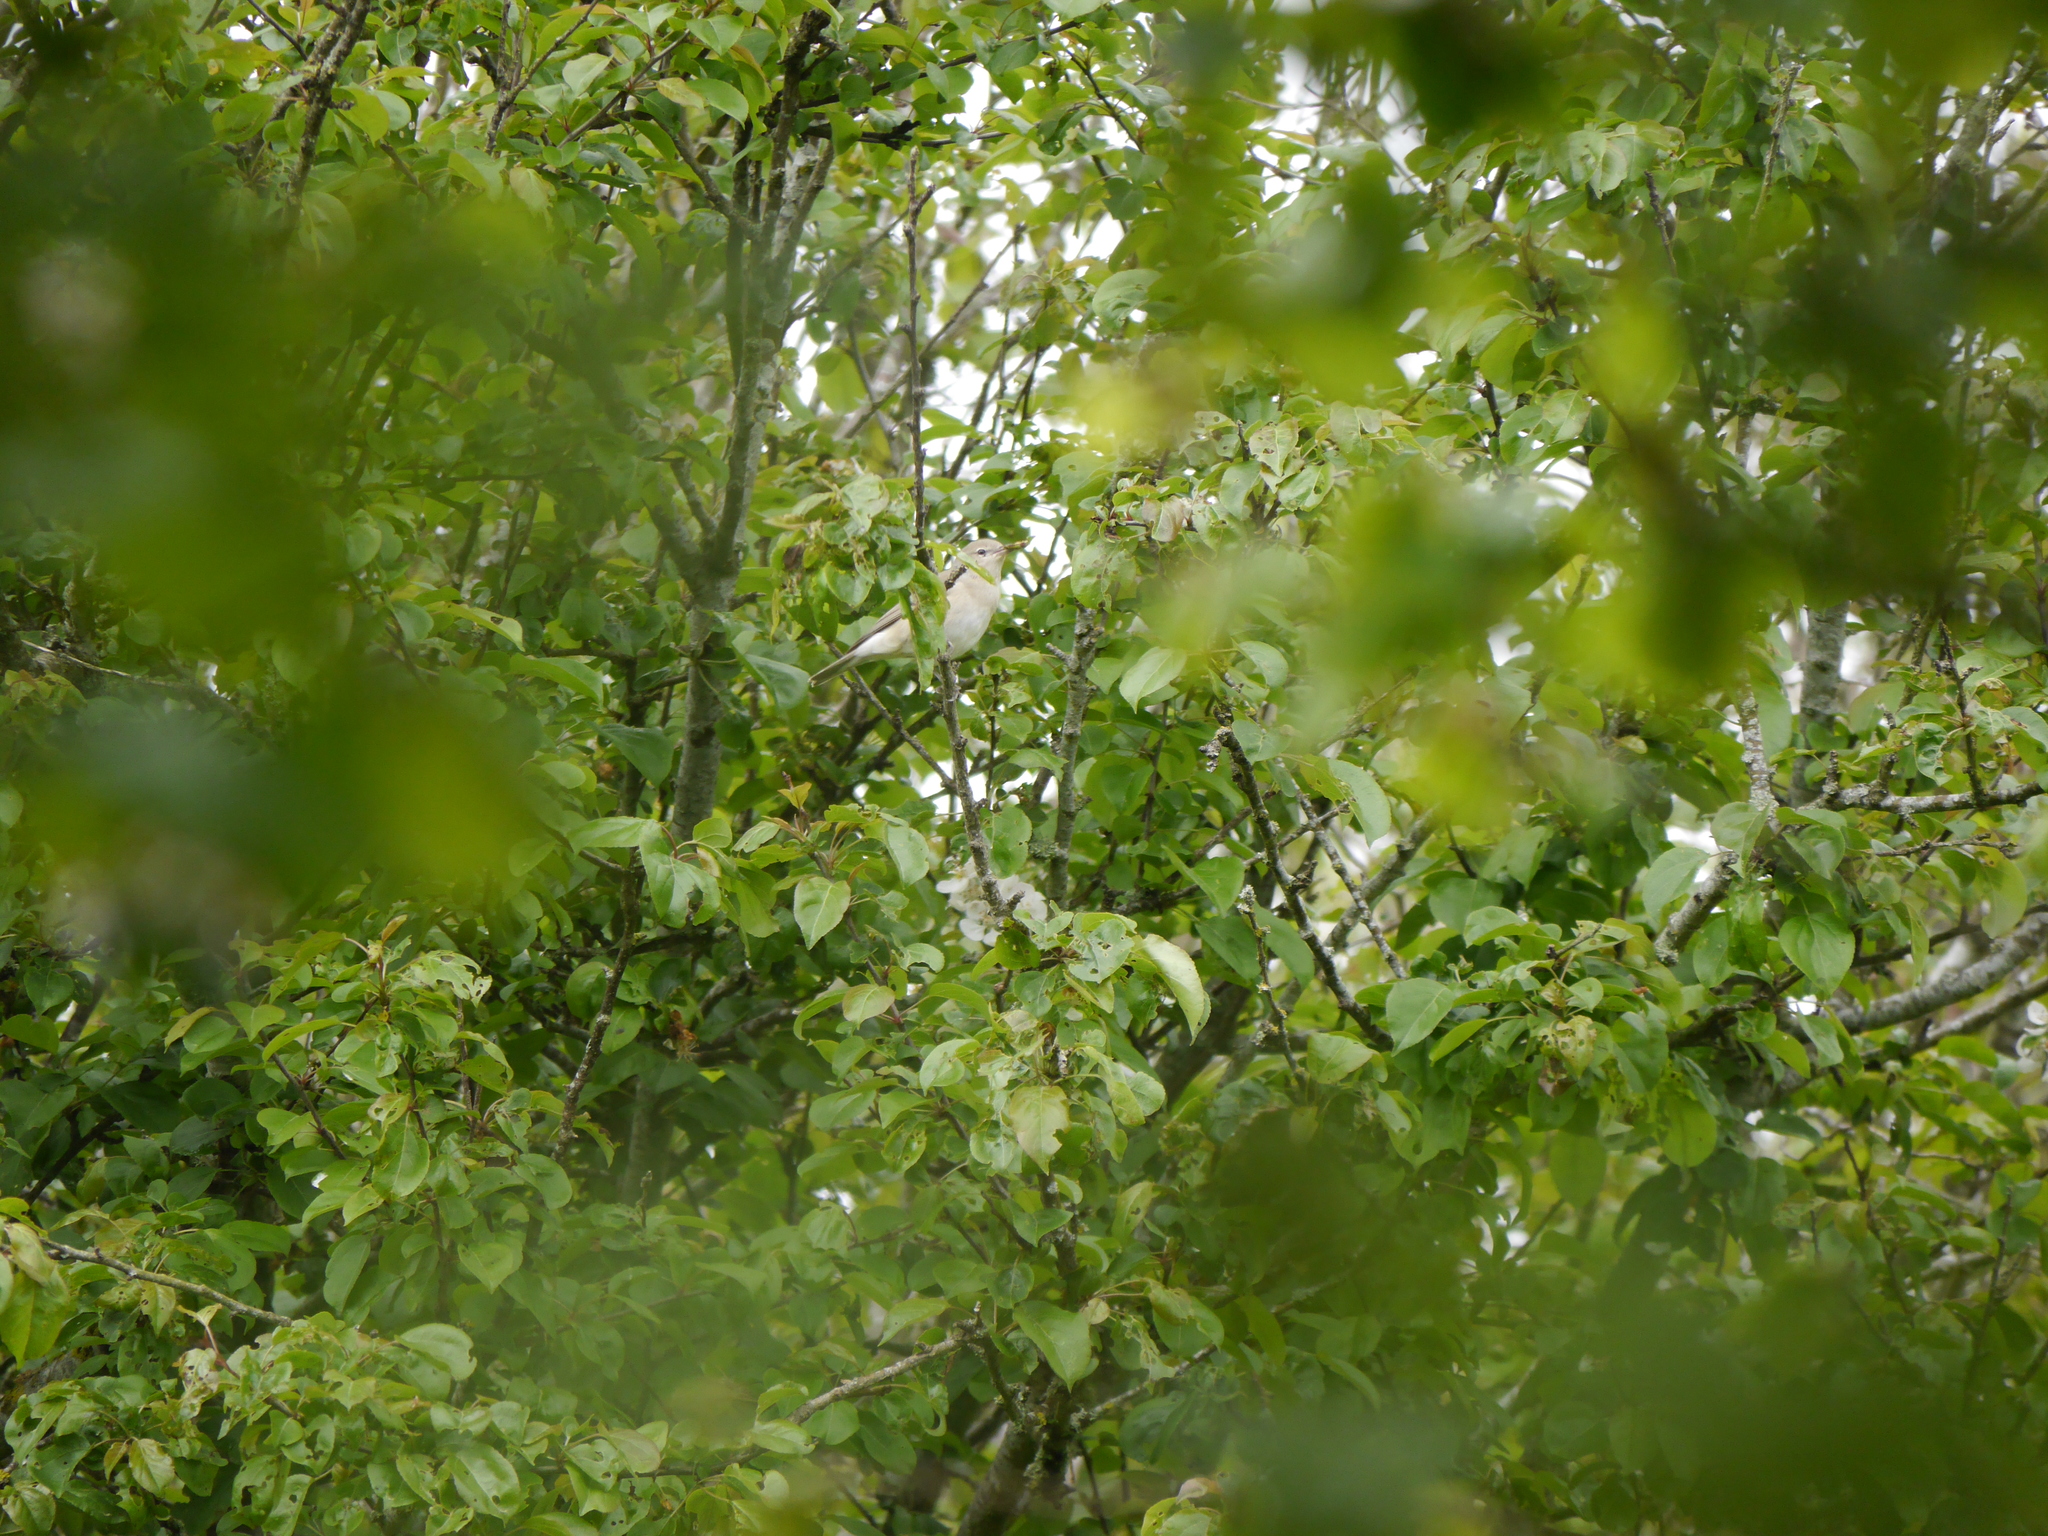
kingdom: Animalia
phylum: Chordata
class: Aves
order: Passeriformes
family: Sylviidae
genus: Sylvia
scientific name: Sylvia borin
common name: Garden warbler
